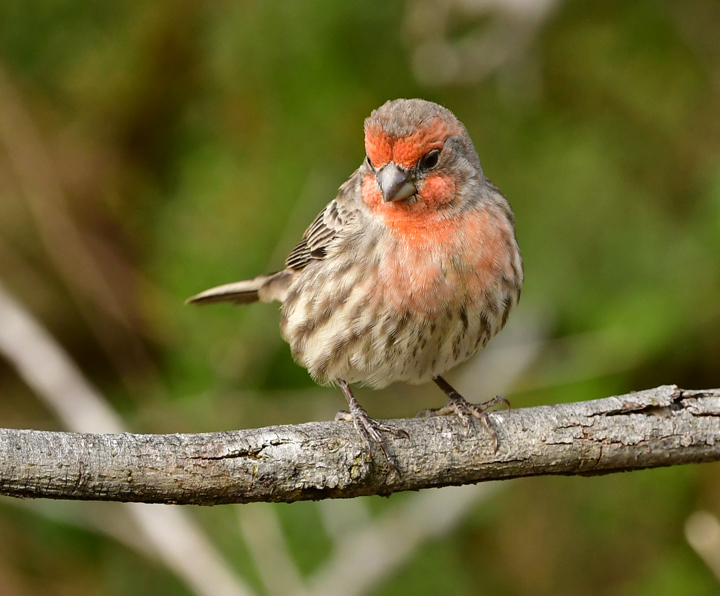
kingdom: Animalia
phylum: Chordata
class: Aves
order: Passeriformes
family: Fringillidae
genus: Haemorhous
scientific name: Haemorhous mexicanus
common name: House finch
